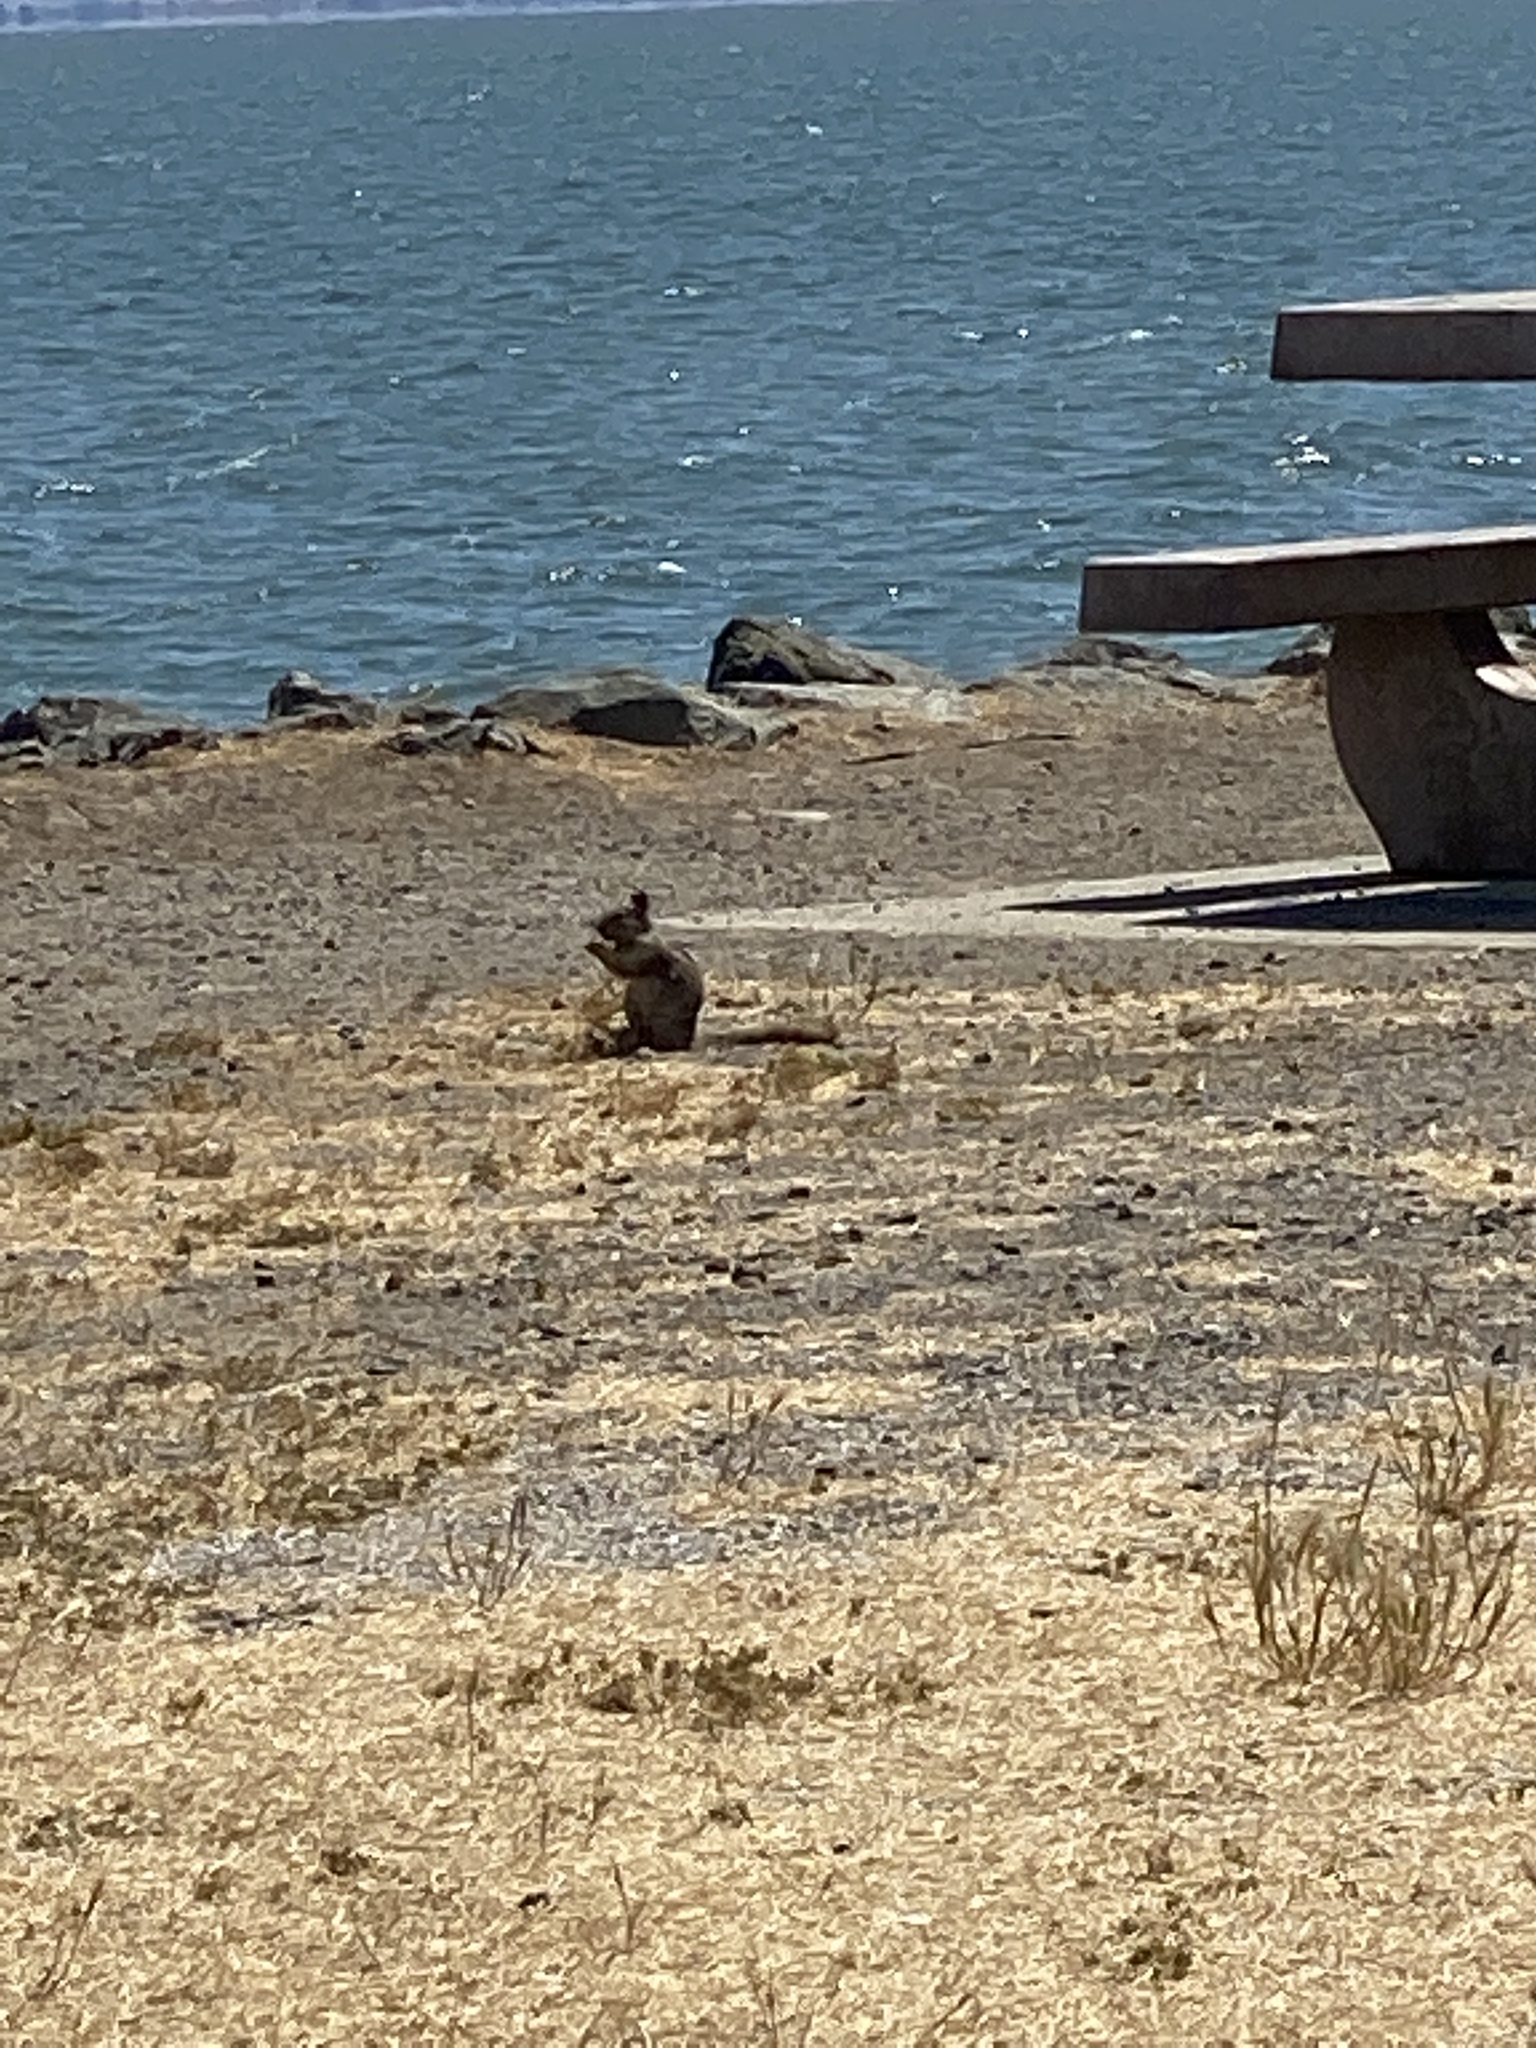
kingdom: Animalia
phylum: Chordata
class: Mammalia
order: Rodentia
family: Sciuridae
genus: Otospermophilus
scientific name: Otospermophilus beecheyi
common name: California ground squirrel
